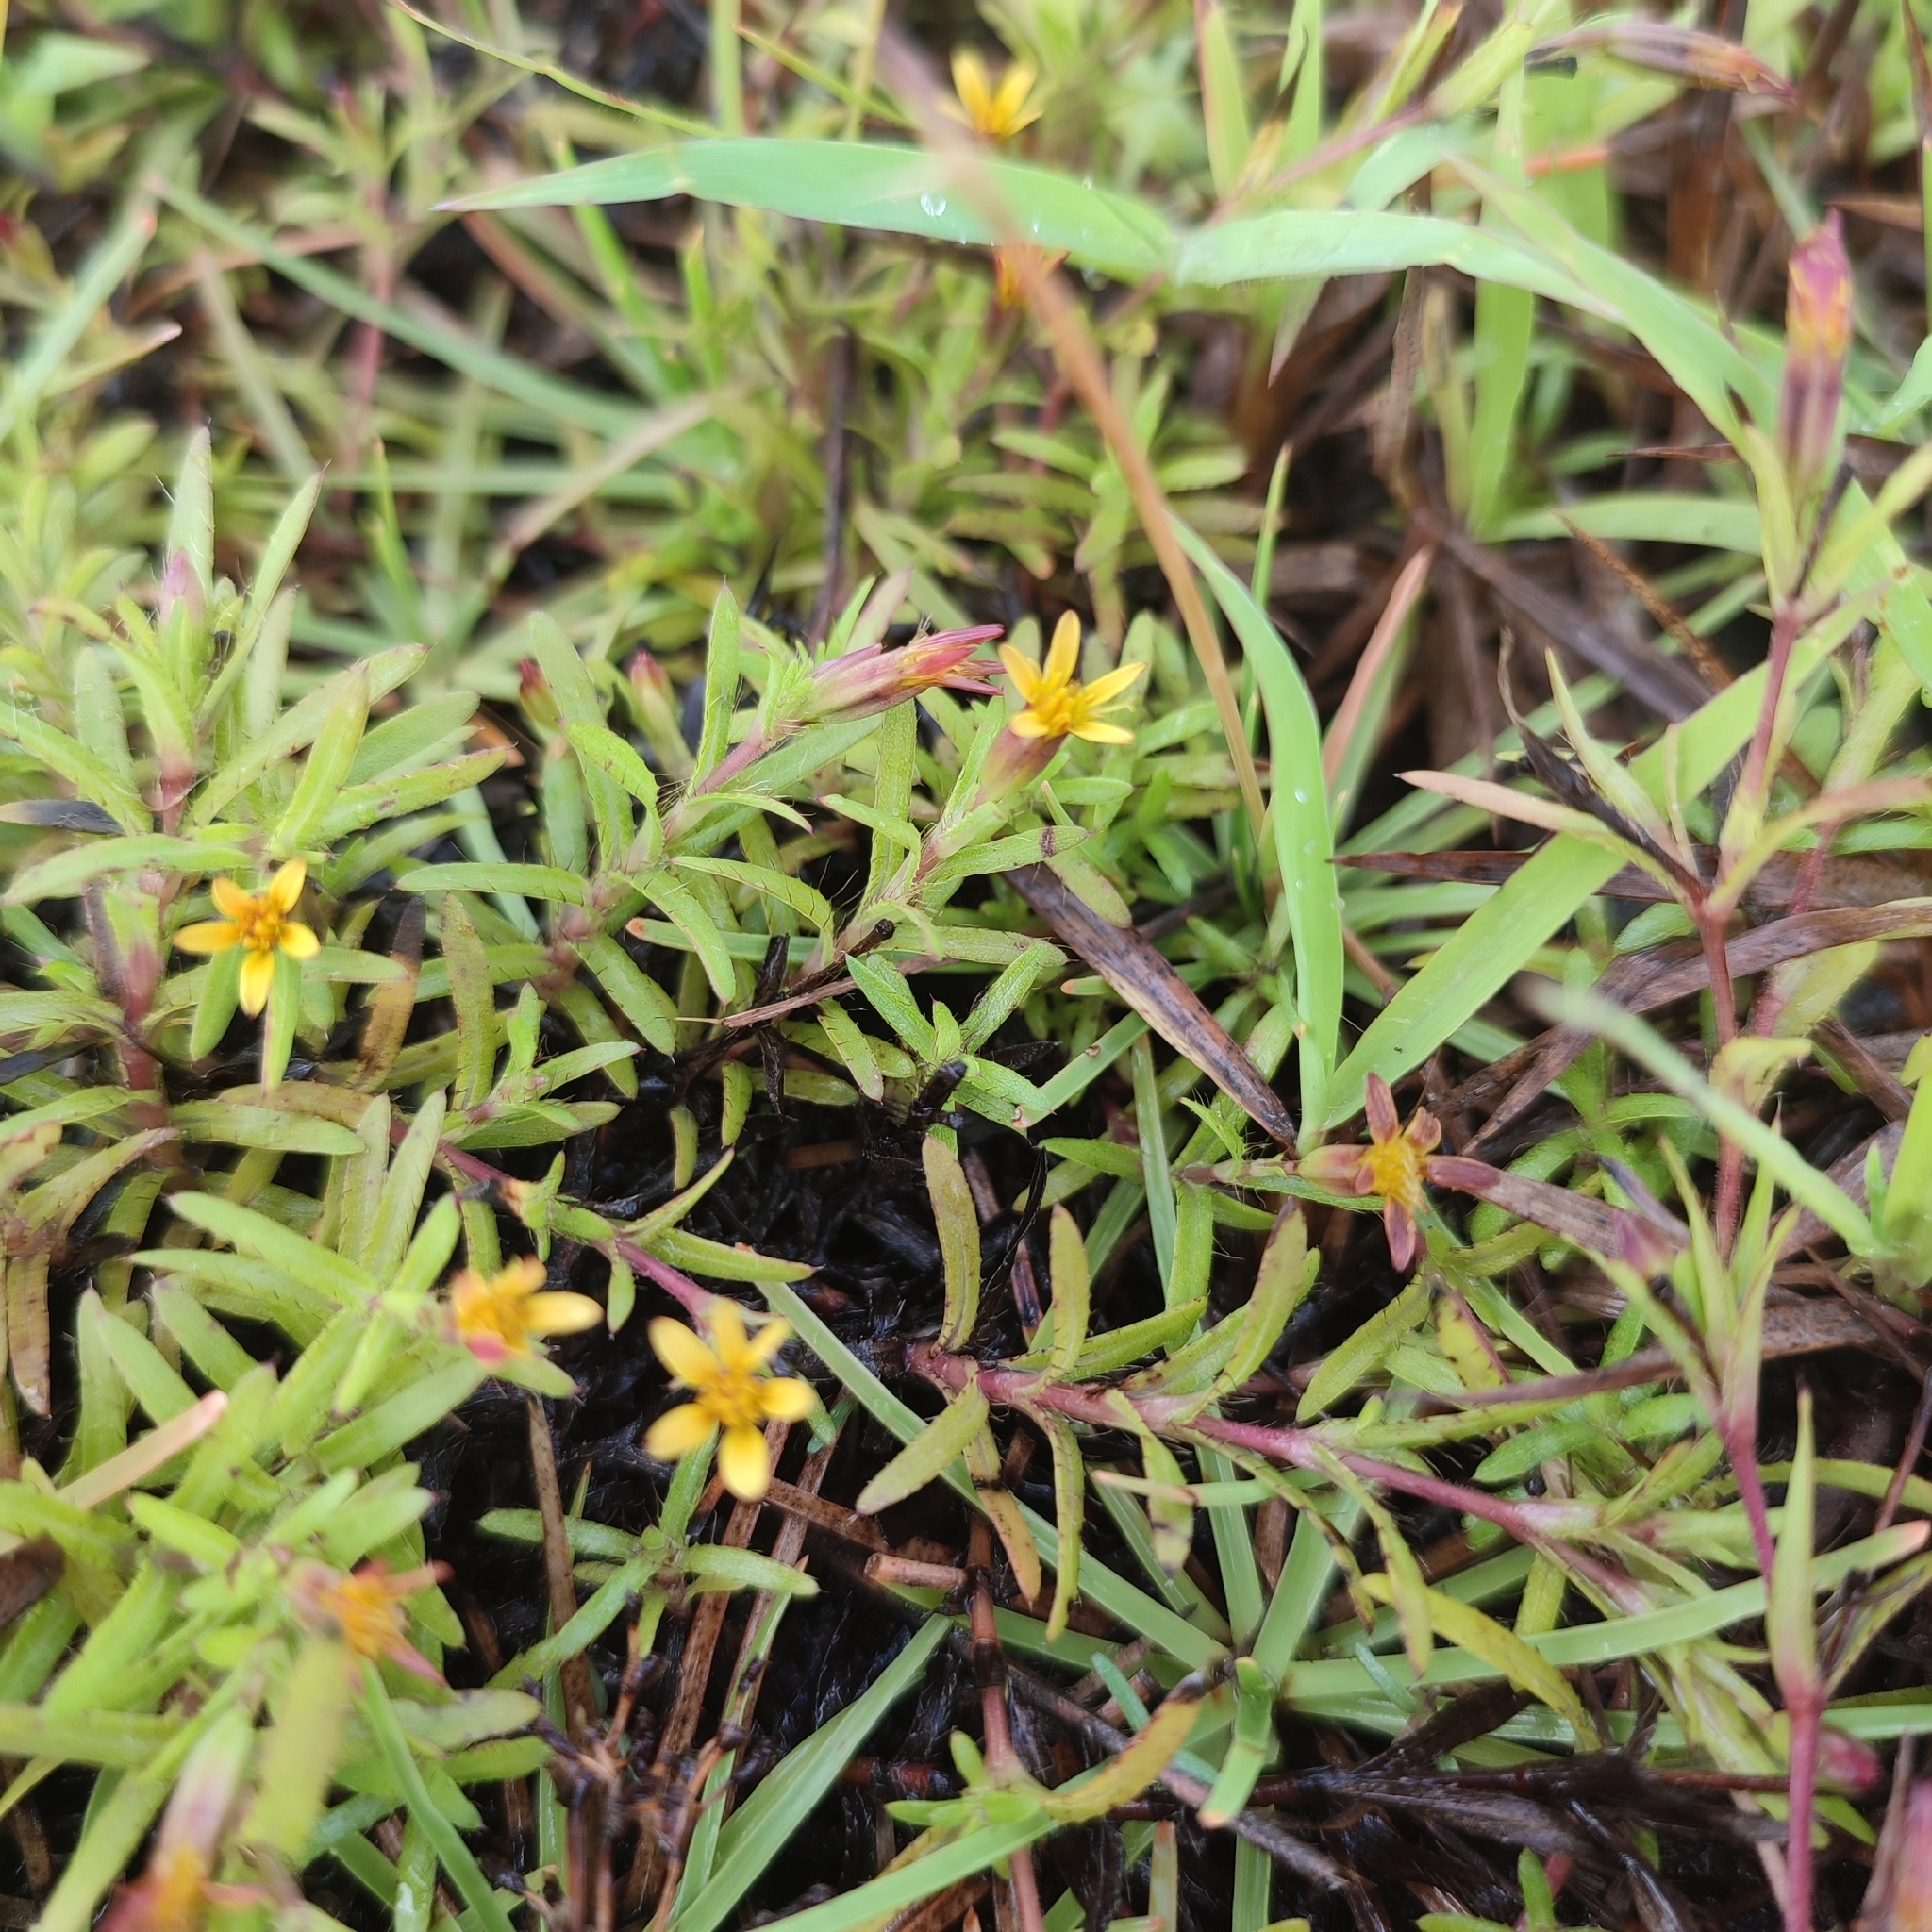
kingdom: Plantae
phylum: Tracheophyta
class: Magnoliopsida
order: Asterales
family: Asteraceae
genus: Pectis
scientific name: Pectis prostrata
